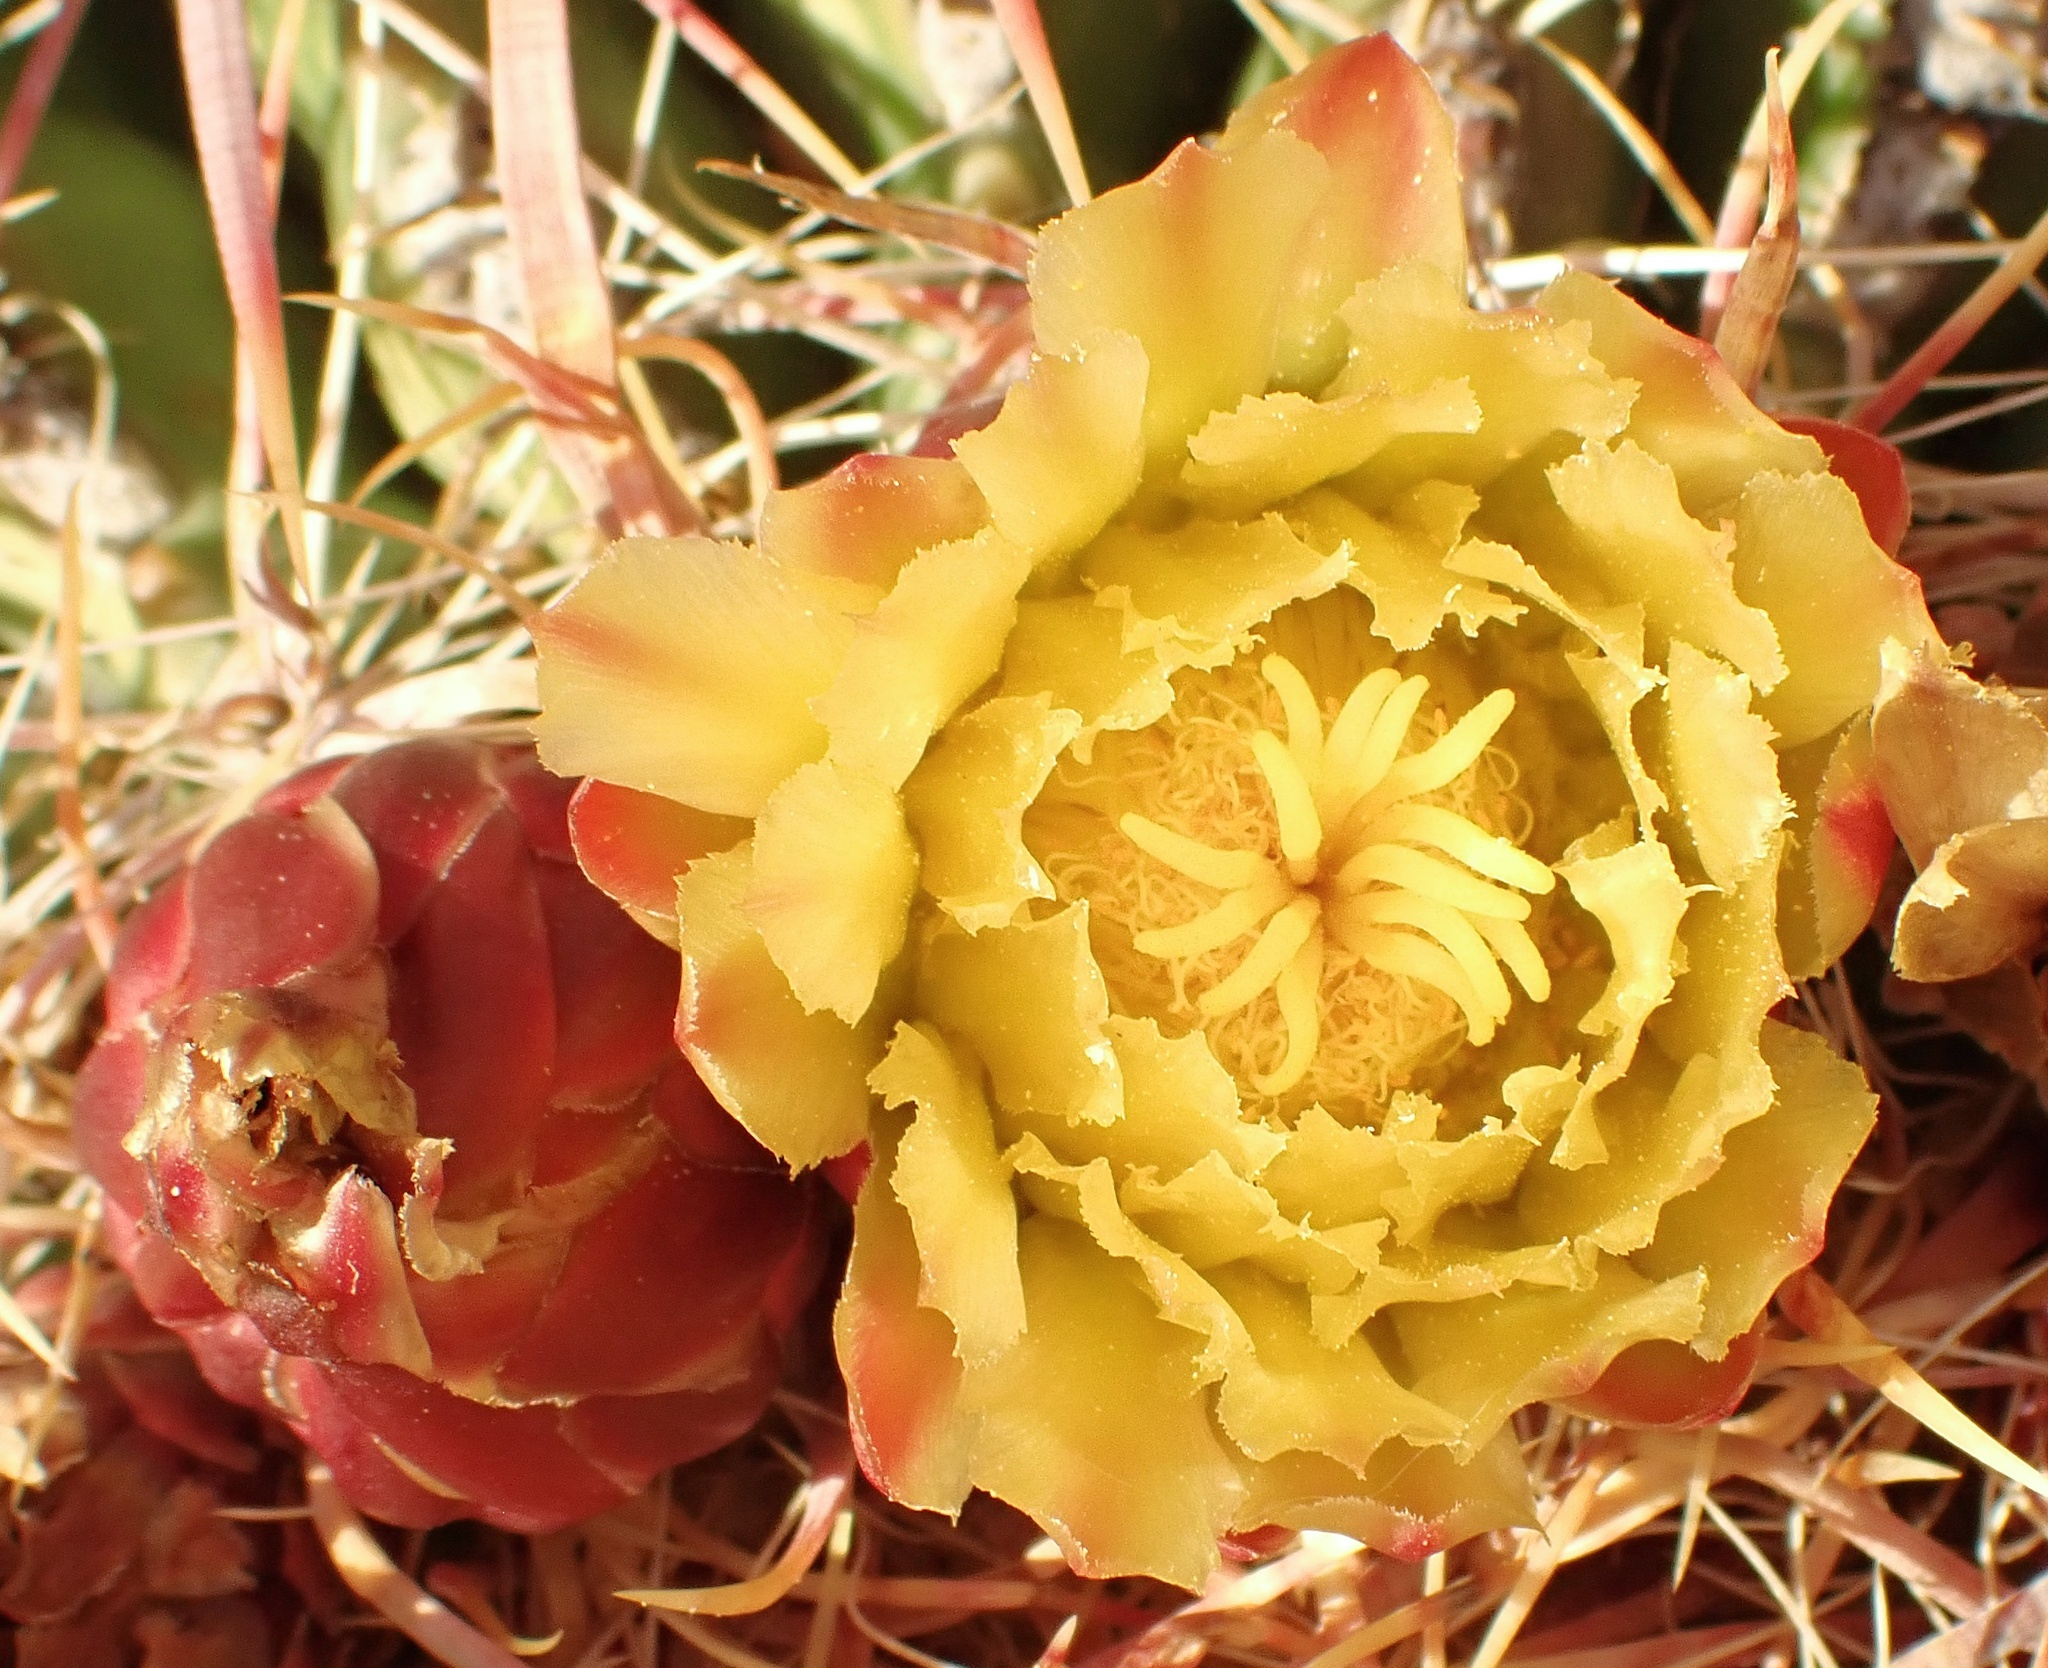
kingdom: Plantae
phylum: Tracheophyta
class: Magnoliopsida
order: Caryophyllales
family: Cactaceae
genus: Ferocactus
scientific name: Ferocactus cylindraceus
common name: California barrel cactus
